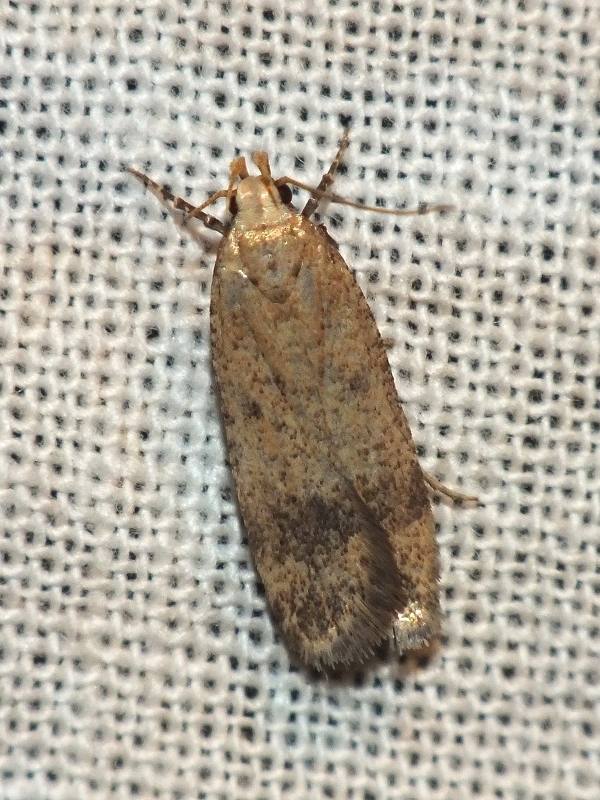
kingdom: Animalia
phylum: Arthropoda
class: Insecta
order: Lepidoptera
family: Gelechiidae
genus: Pexicopia
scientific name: Pexicopia malvella
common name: Hollyhock seed moth
